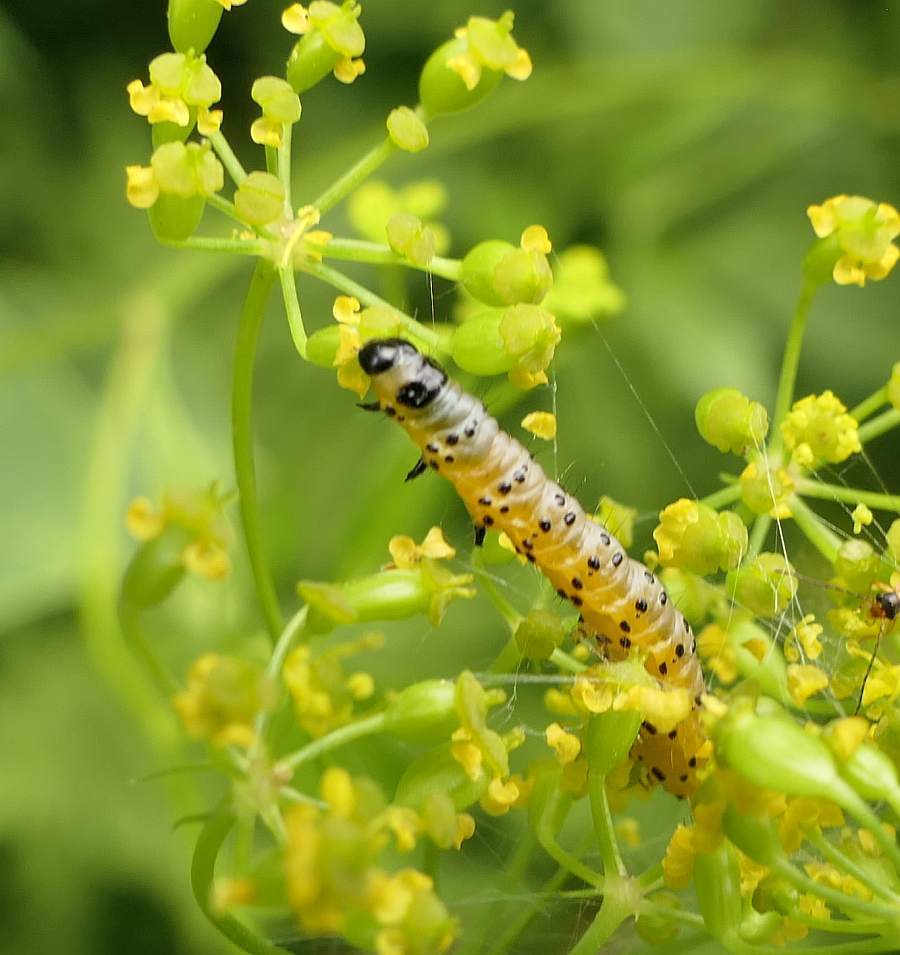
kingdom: Animalia
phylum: Arthropoda
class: Insecta
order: Lepidoptera
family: Depressariidae
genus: Depressaria
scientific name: Depressaria radiella
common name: Parsnip moth
